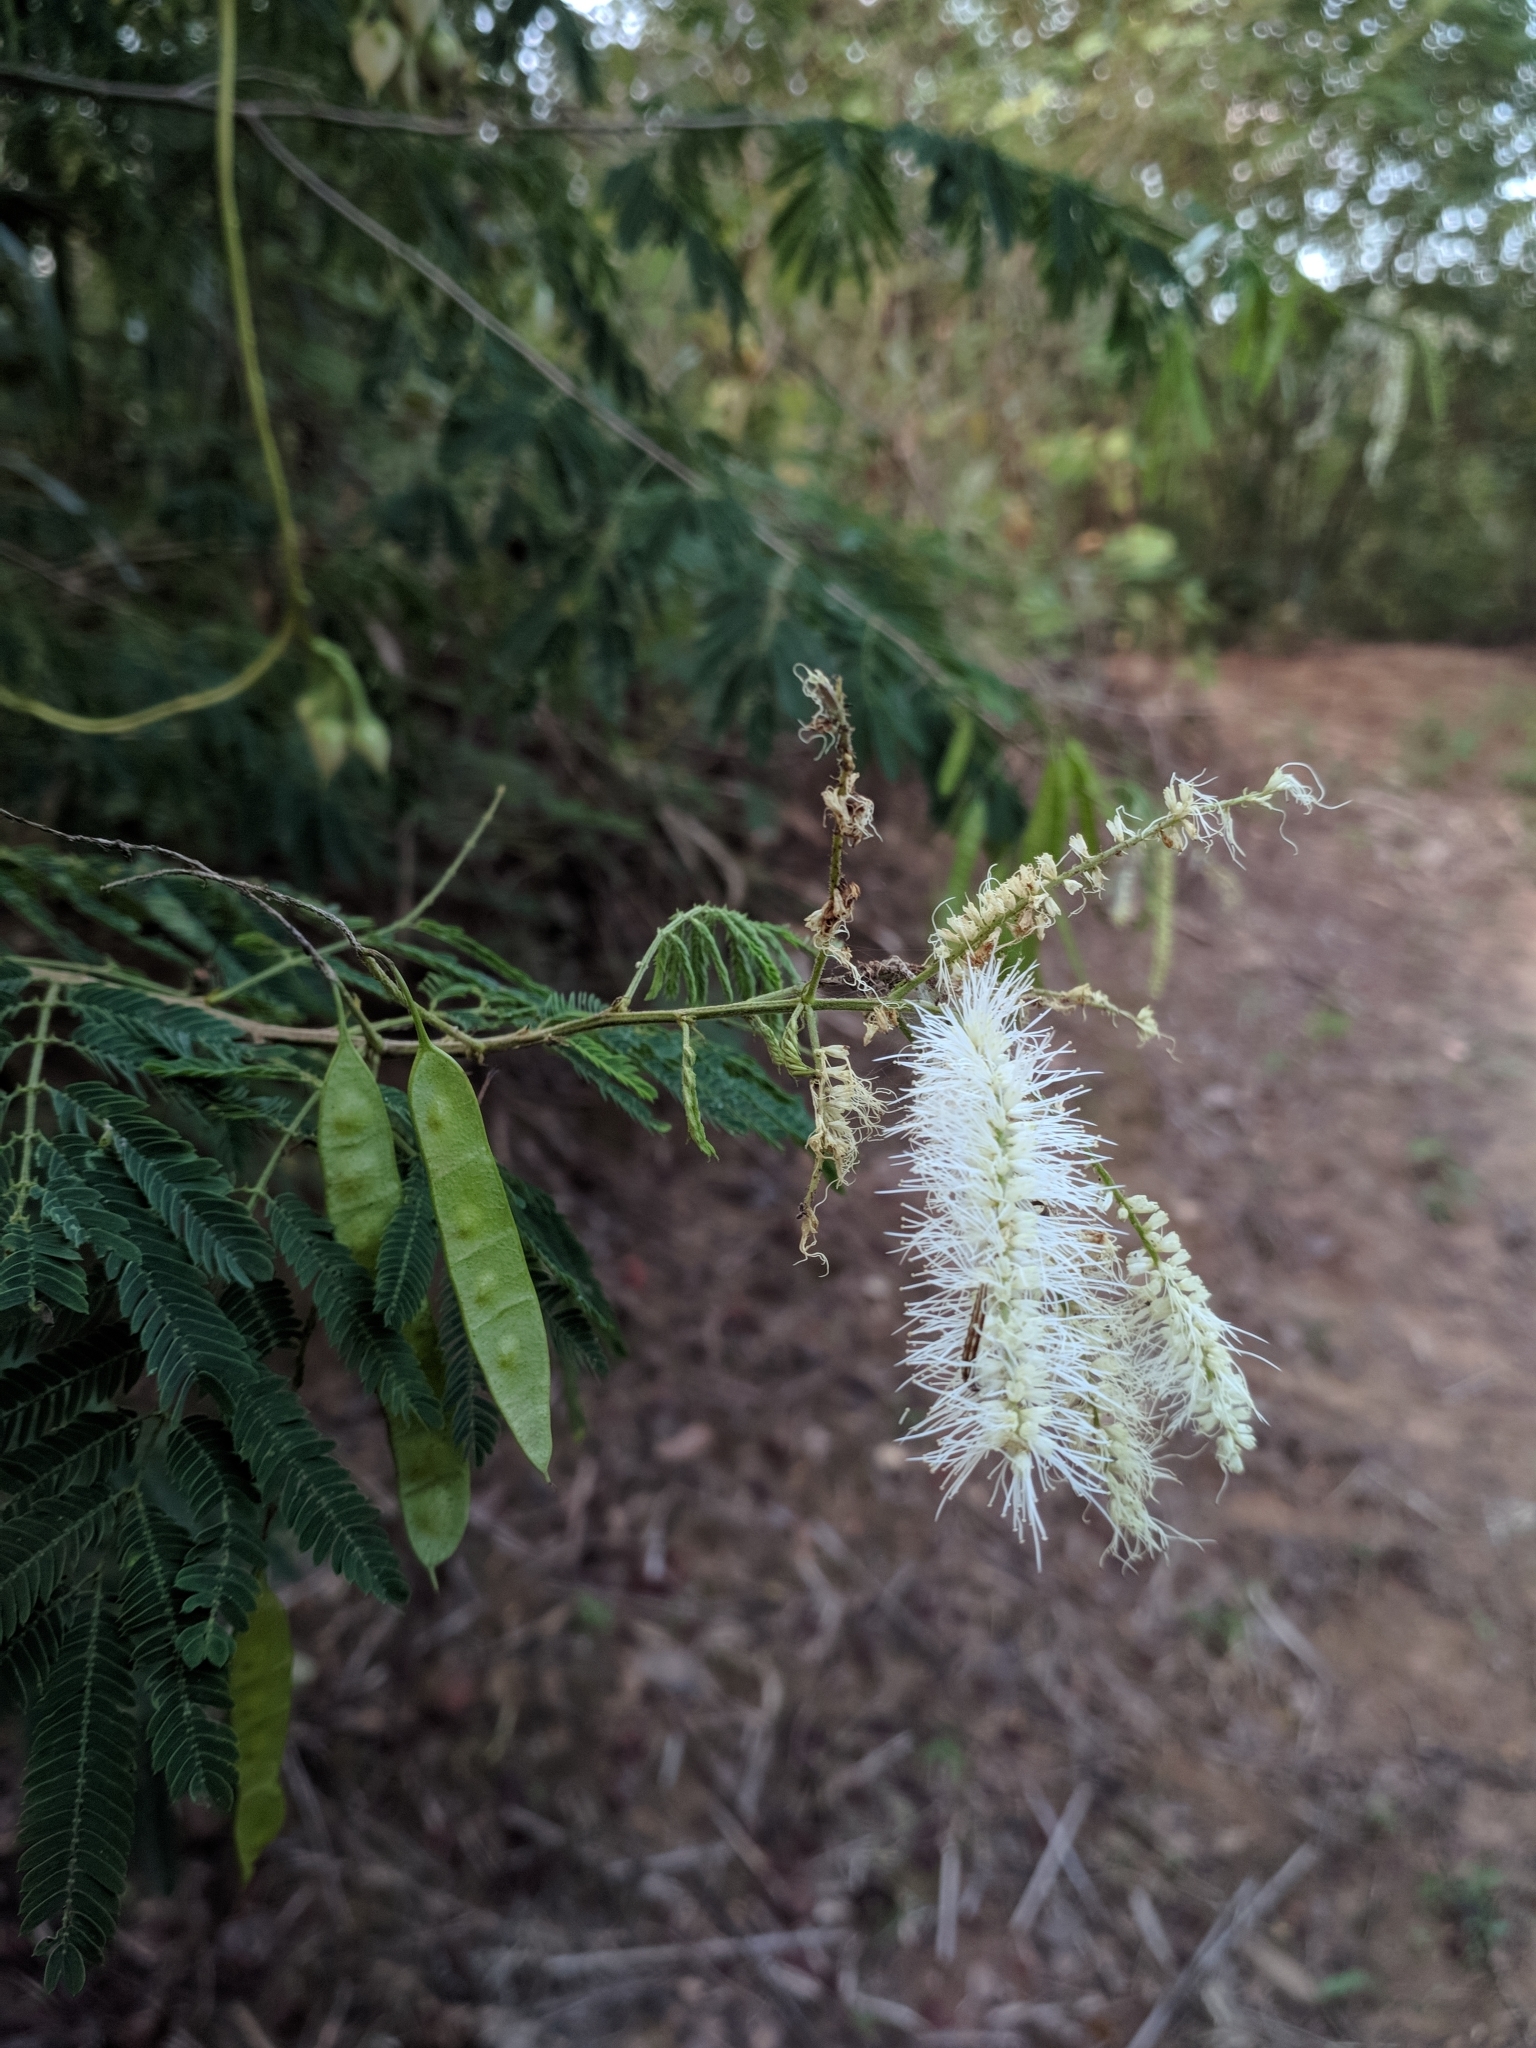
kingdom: Plantae
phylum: Tracheophyta
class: Magnoliopsida
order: Fabales
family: Fabaceae
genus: Mimosa
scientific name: Mimosa arenosa
